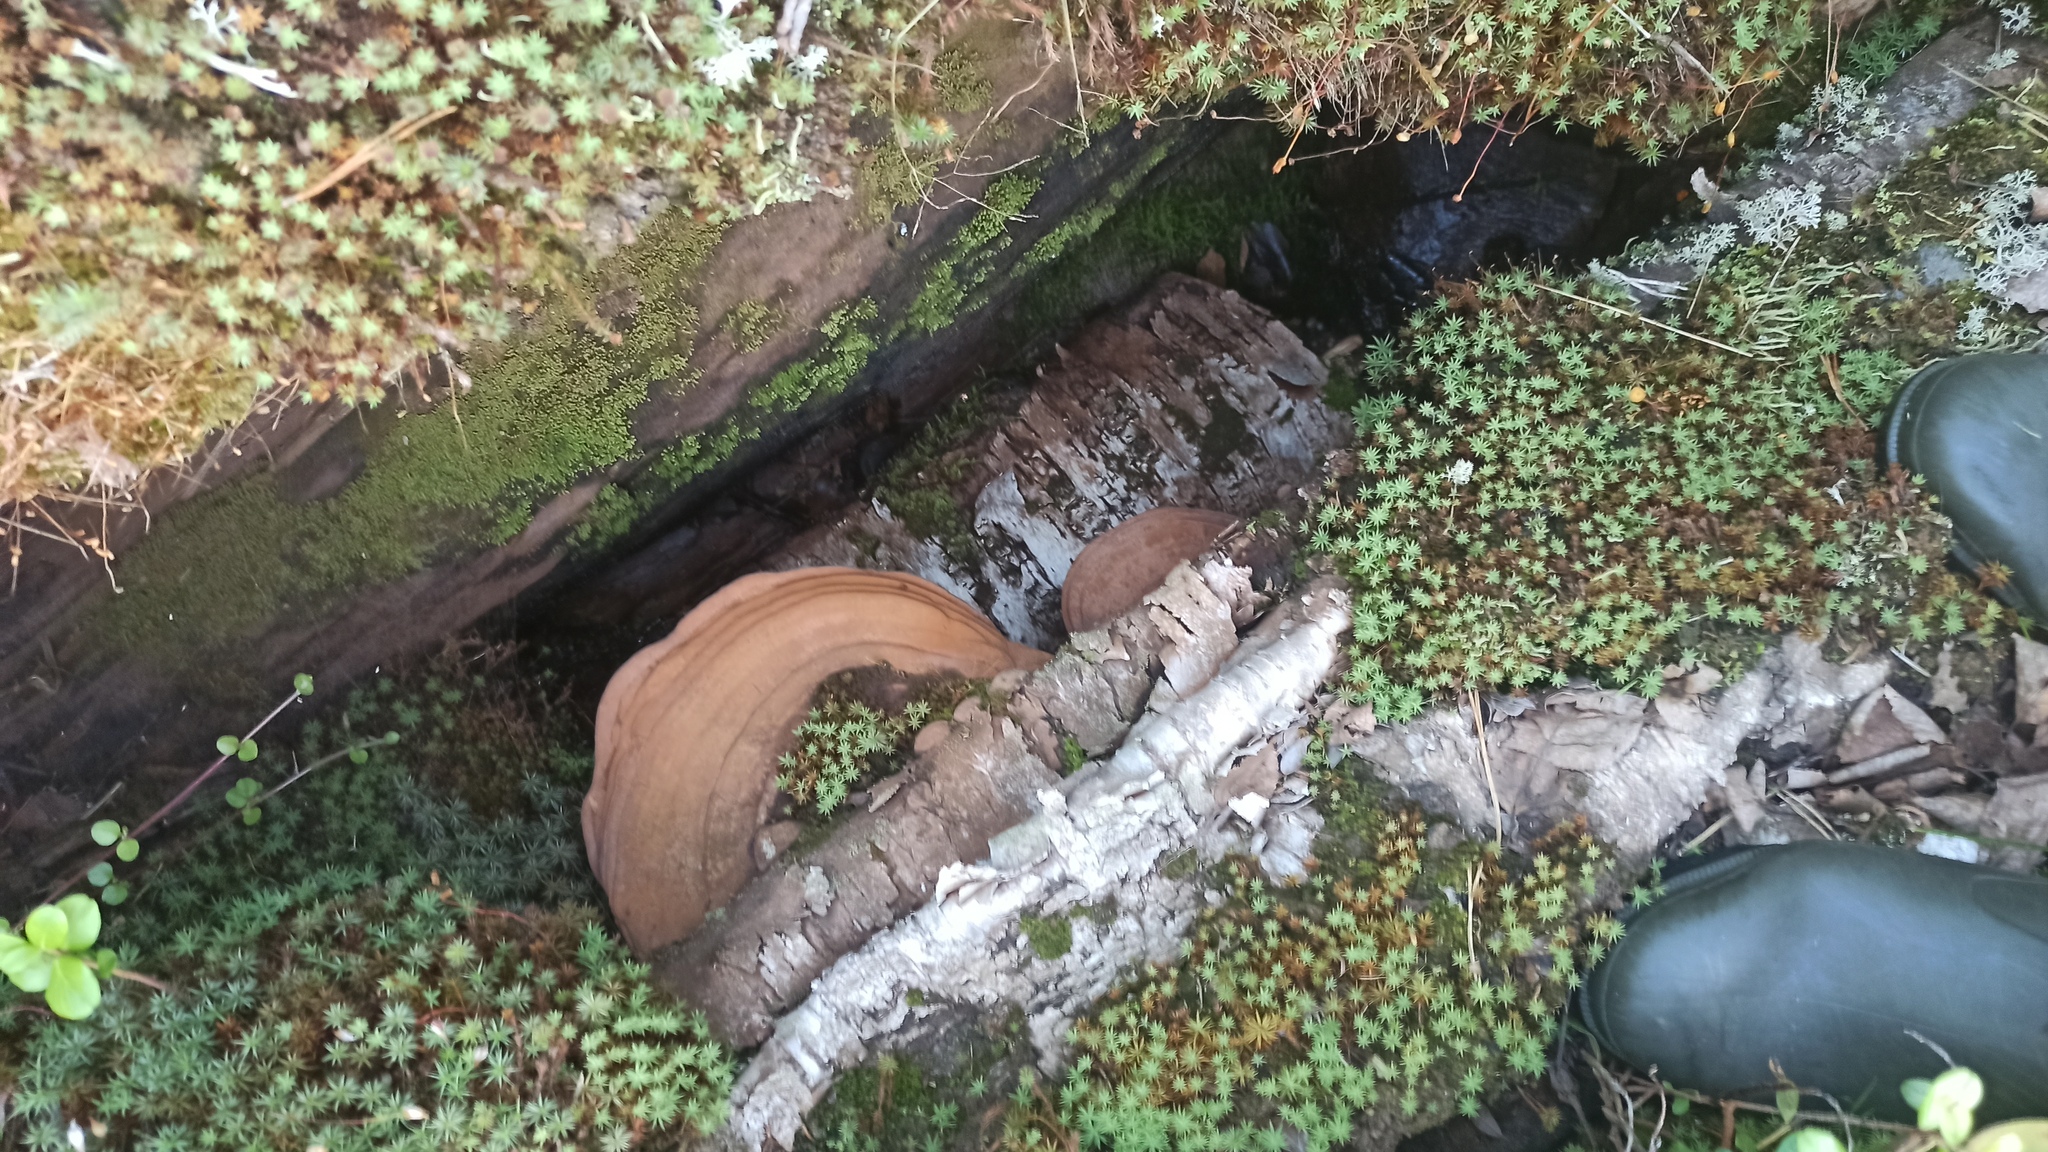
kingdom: Fungi
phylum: Basidiomycota
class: Agaricomycetes
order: Polyporales
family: Polyporaceae
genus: Ganoderma
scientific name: Ganoderma applanatum
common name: Artist's bracket
